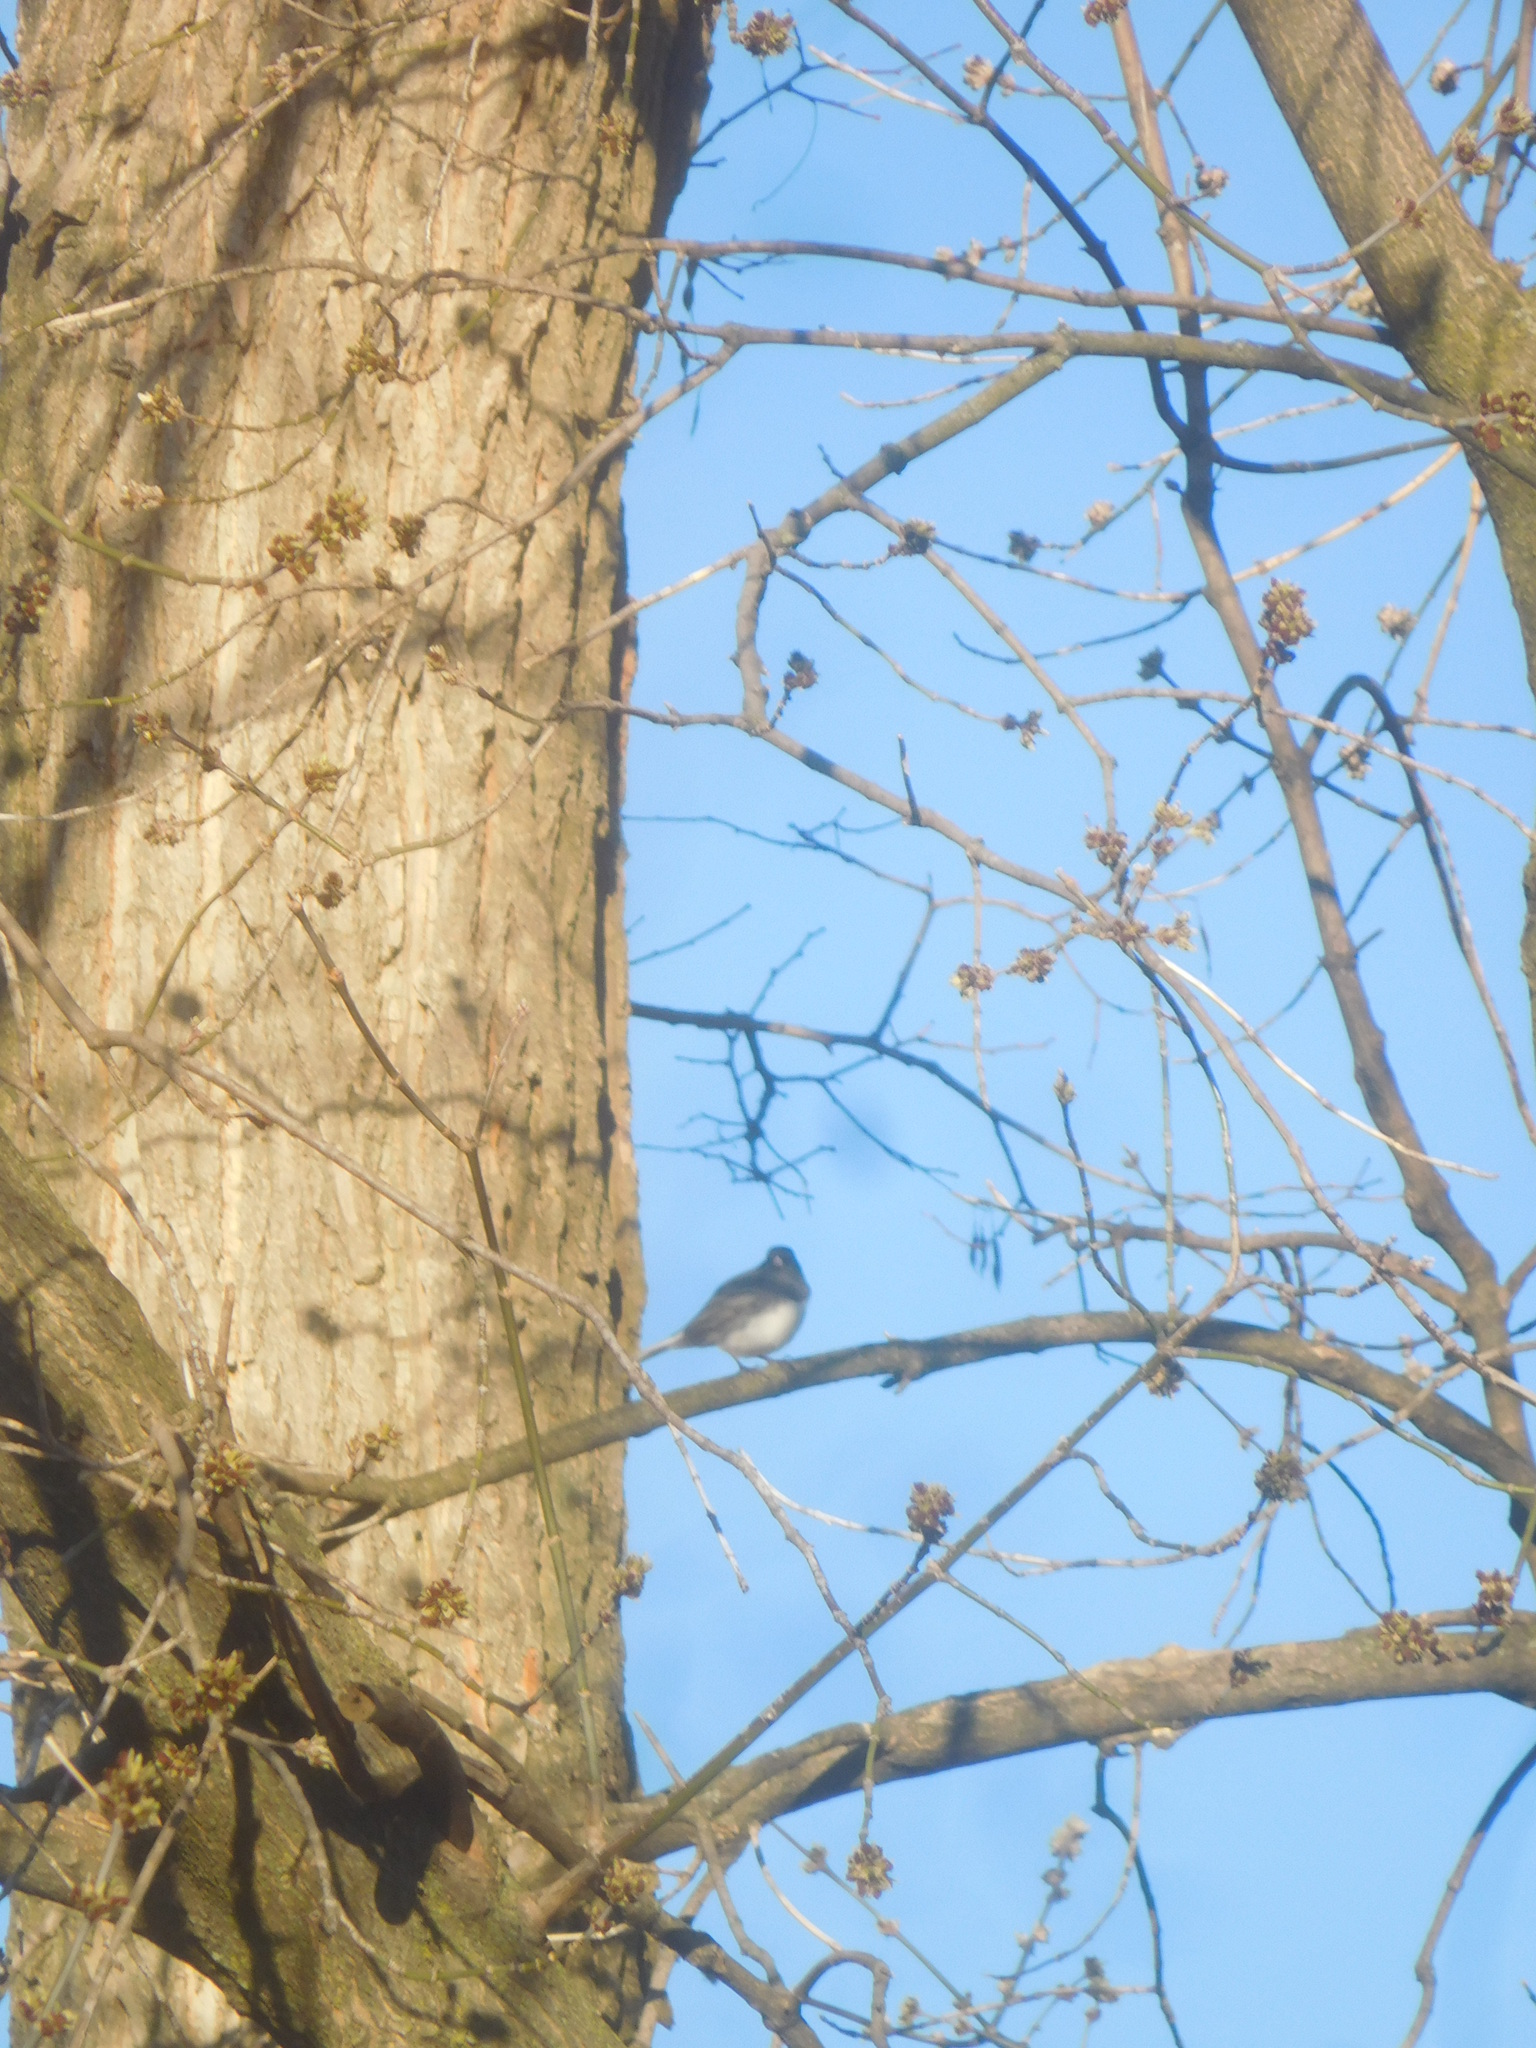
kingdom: Animalia
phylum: Chordata
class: Aves
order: Passeriformes
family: Passerellidae
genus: Junco
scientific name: Junco hyemalis
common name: Dark-eyed junco
